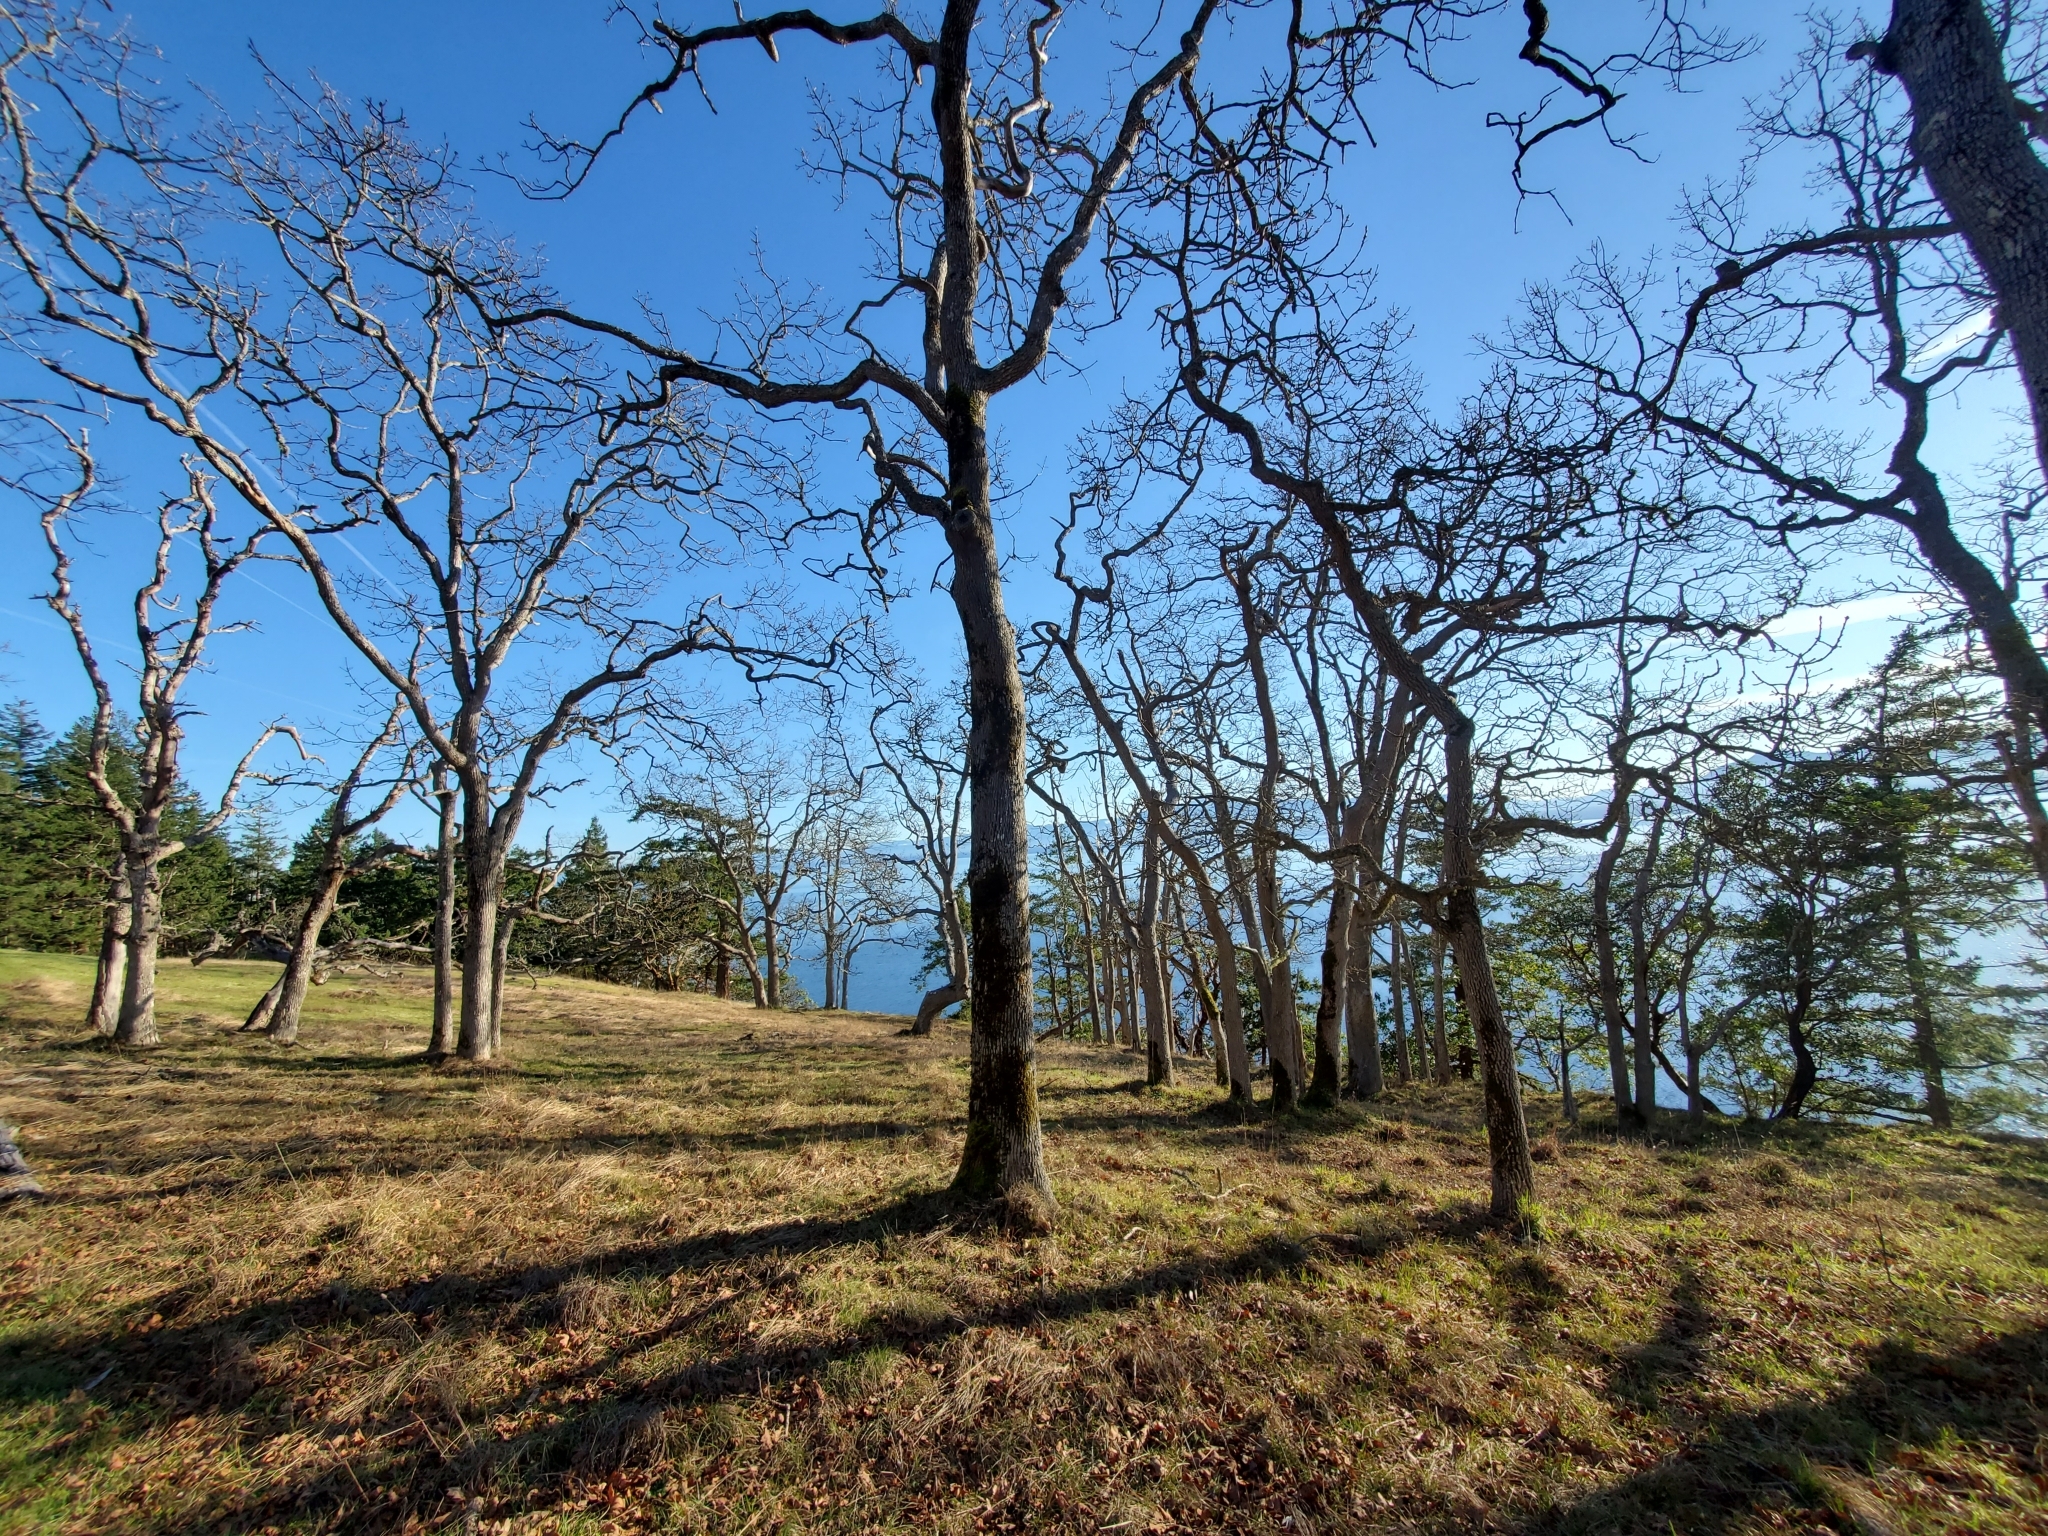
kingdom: Plantae
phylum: Tracheophyta
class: Magnoliopsida
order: Fagales
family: Fagaceae
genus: Quercus
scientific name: Quercus garryana
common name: Garry oak
